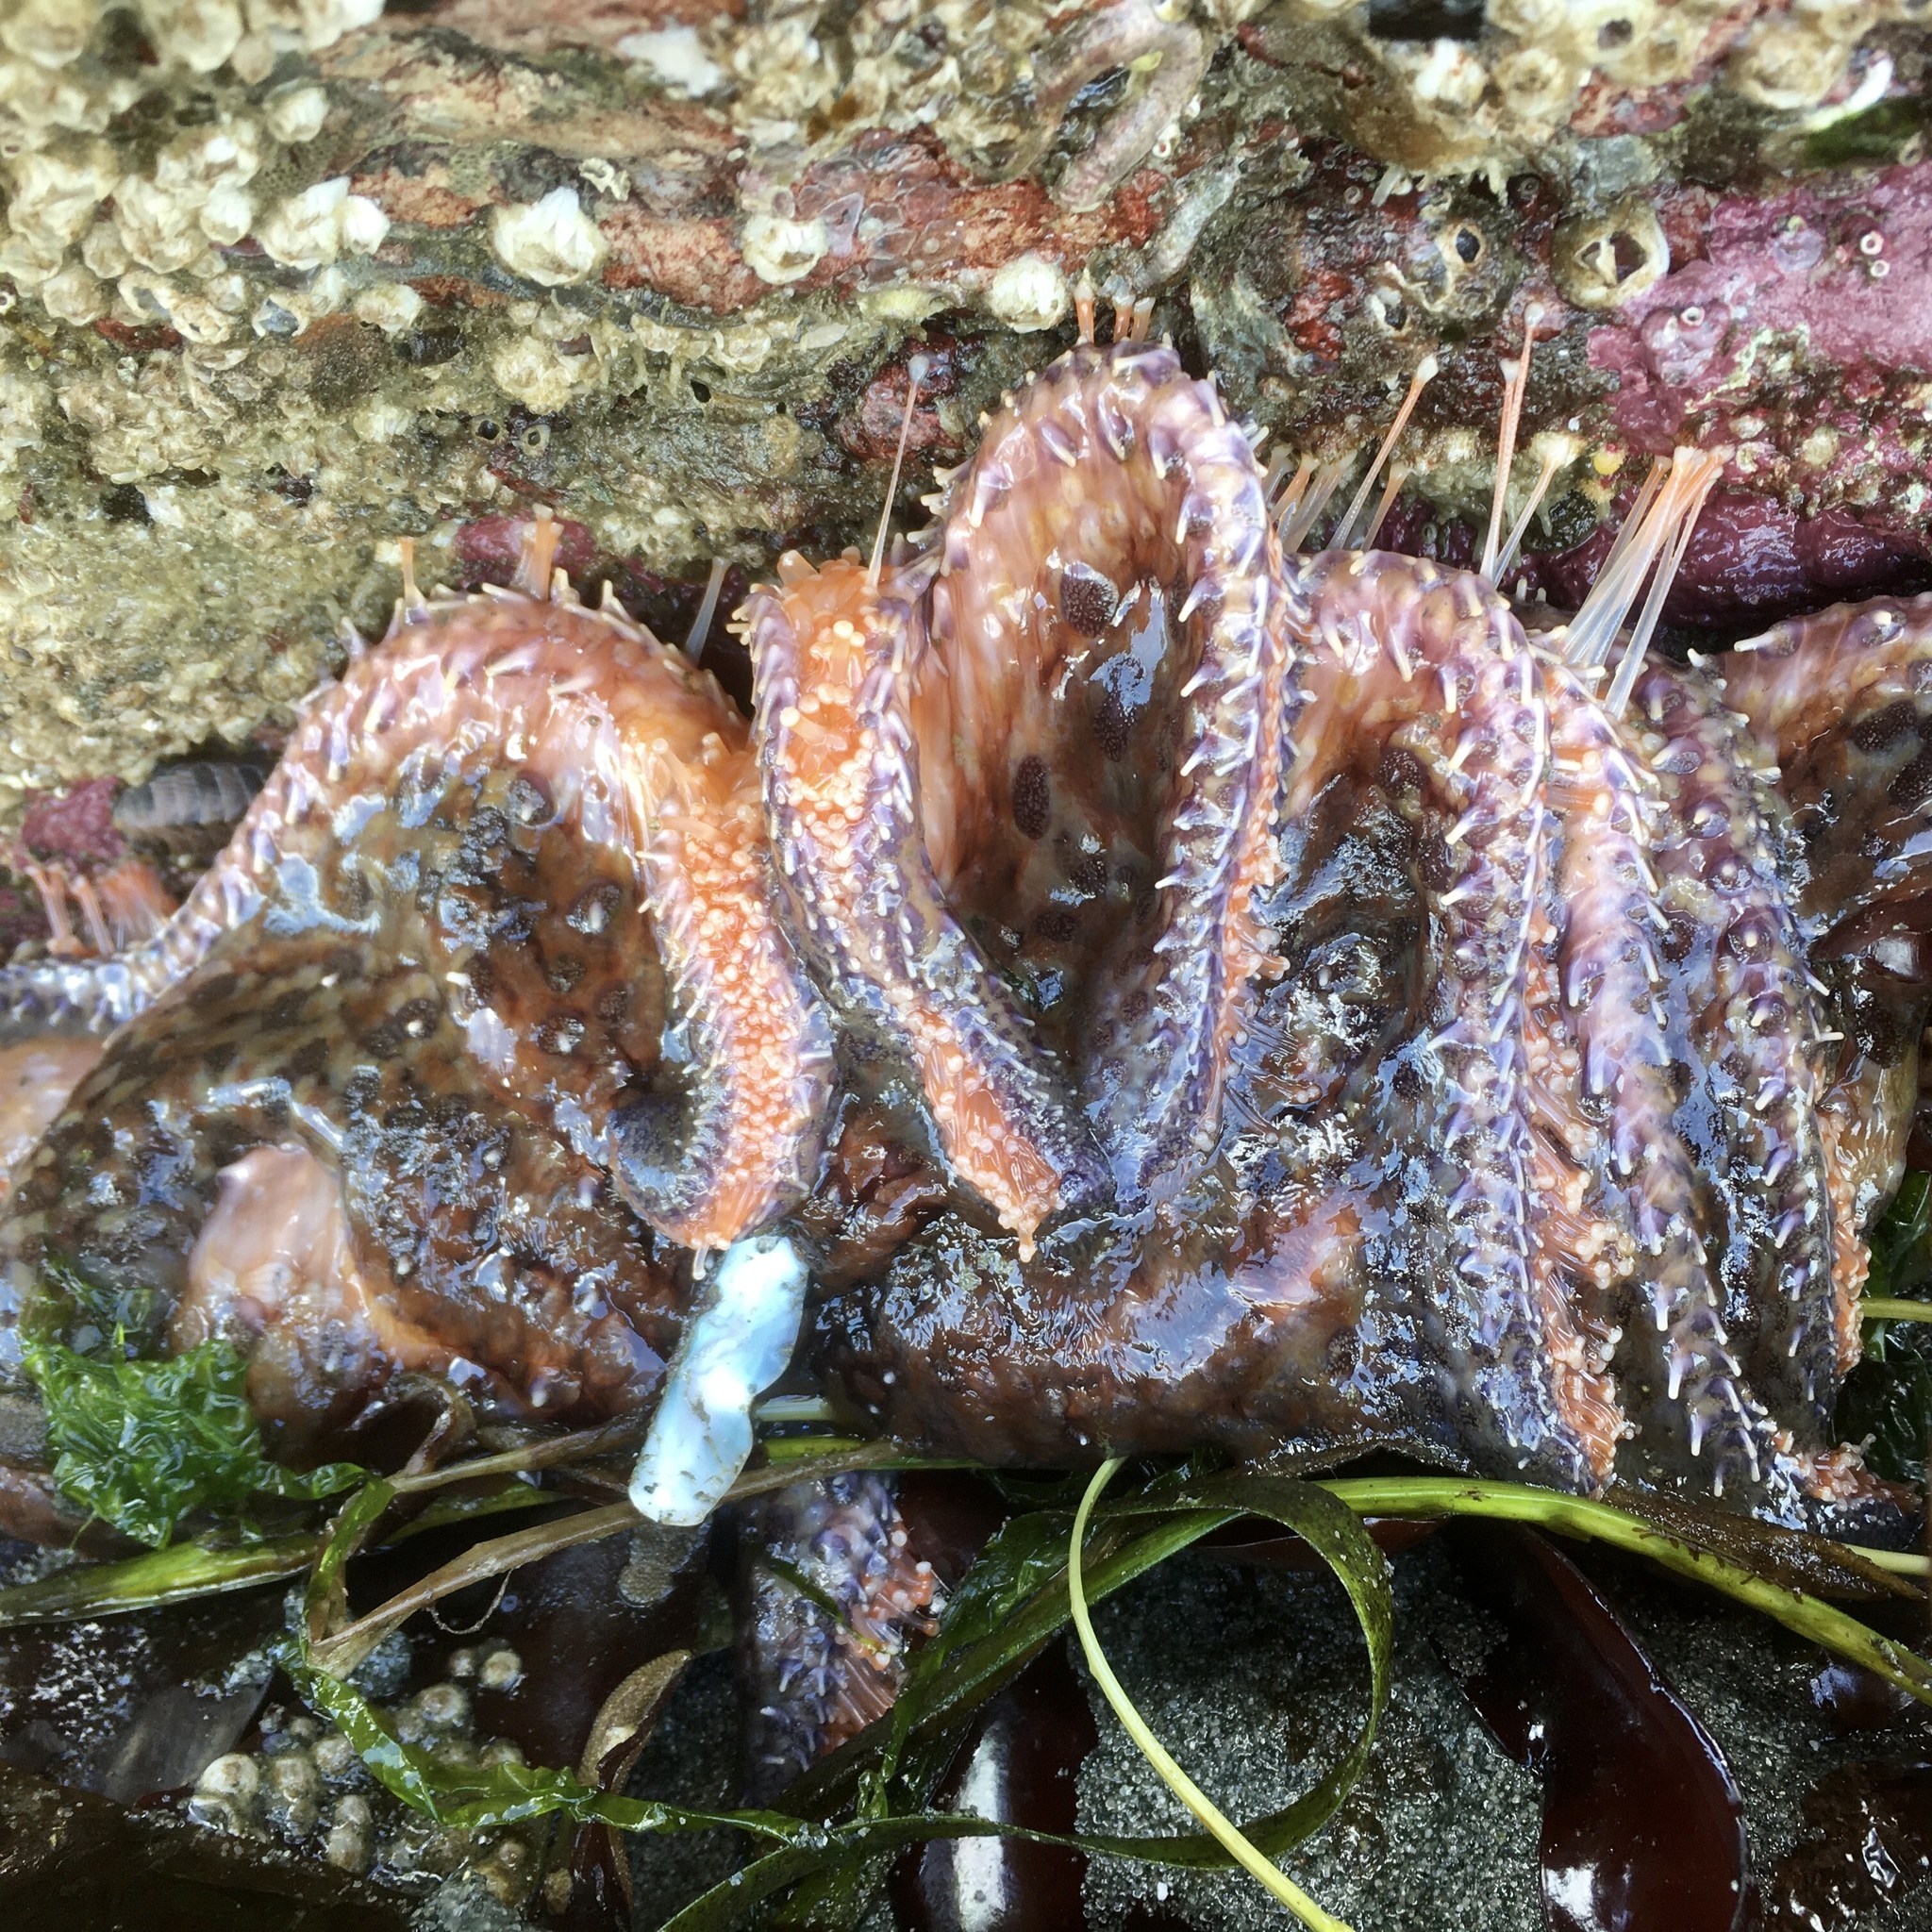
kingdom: Animalia
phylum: Echinodermata
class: Asteroidea
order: Forcipulatida
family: Asteriidae
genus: Pycnopodia
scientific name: Pycnopodia helianthoides
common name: Rag mop
